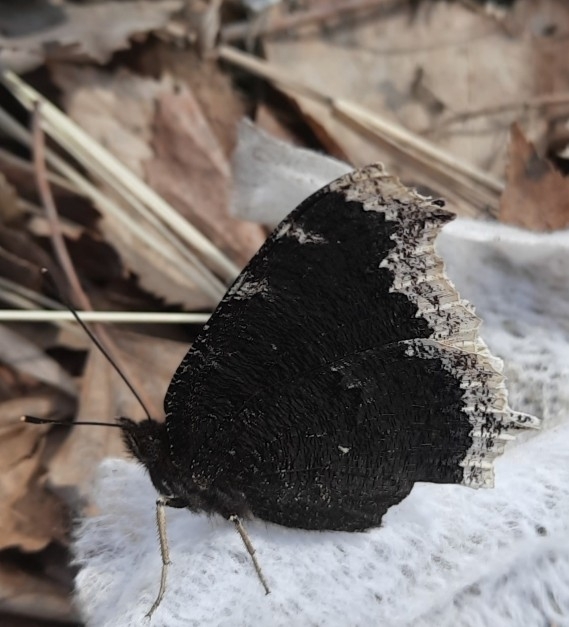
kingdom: Animalia
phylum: Arthropoda
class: Insecta
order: Lepidoptera
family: Nymphalidae
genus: Nymphalis
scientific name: Nymphalis antiopa
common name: Camberwell beauty
